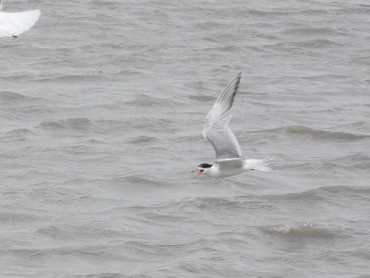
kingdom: Animalia
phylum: Chordata
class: Aves
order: Charadriiformes
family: Laridae
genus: Sterna
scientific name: Sterna forsteri
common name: Forster's tern
